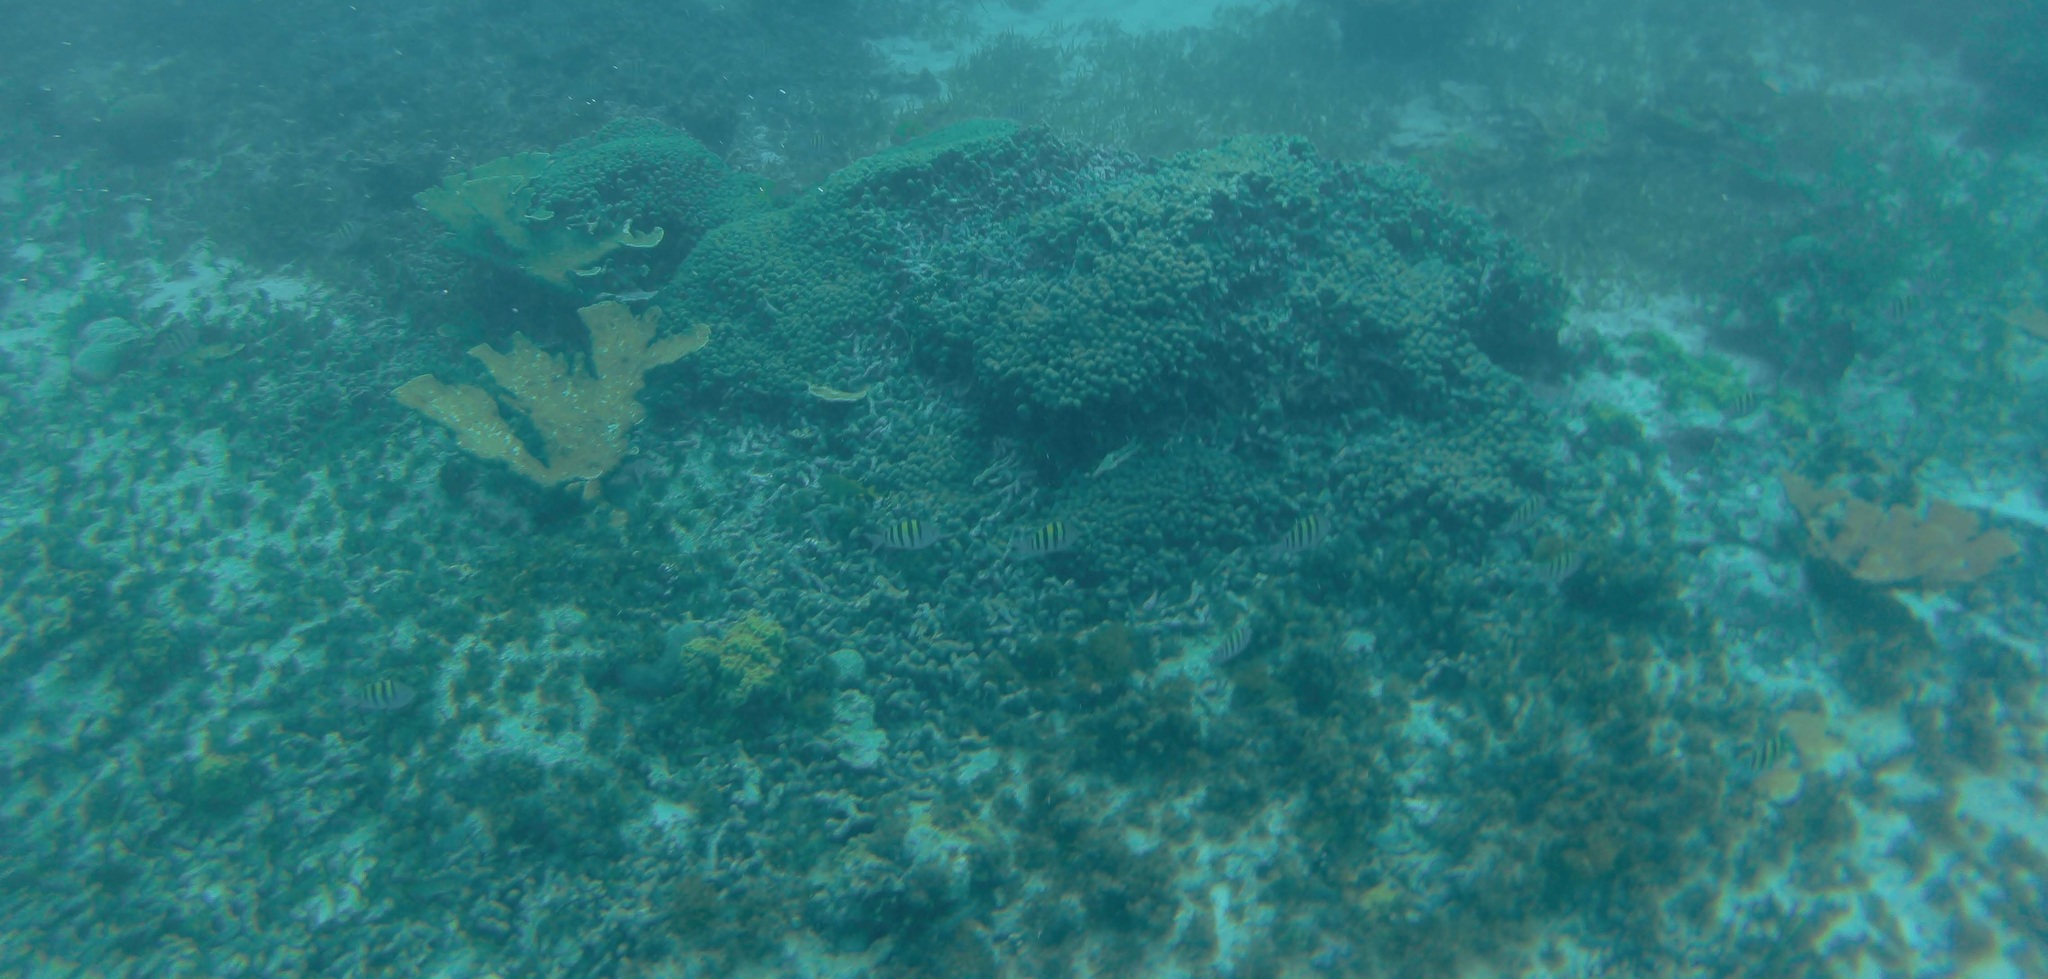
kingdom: Animalia
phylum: Chordata
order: Perciformes
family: Pomacentridae
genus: Abudefduf
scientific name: Abudefduf saxatilis
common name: Sergeant major
